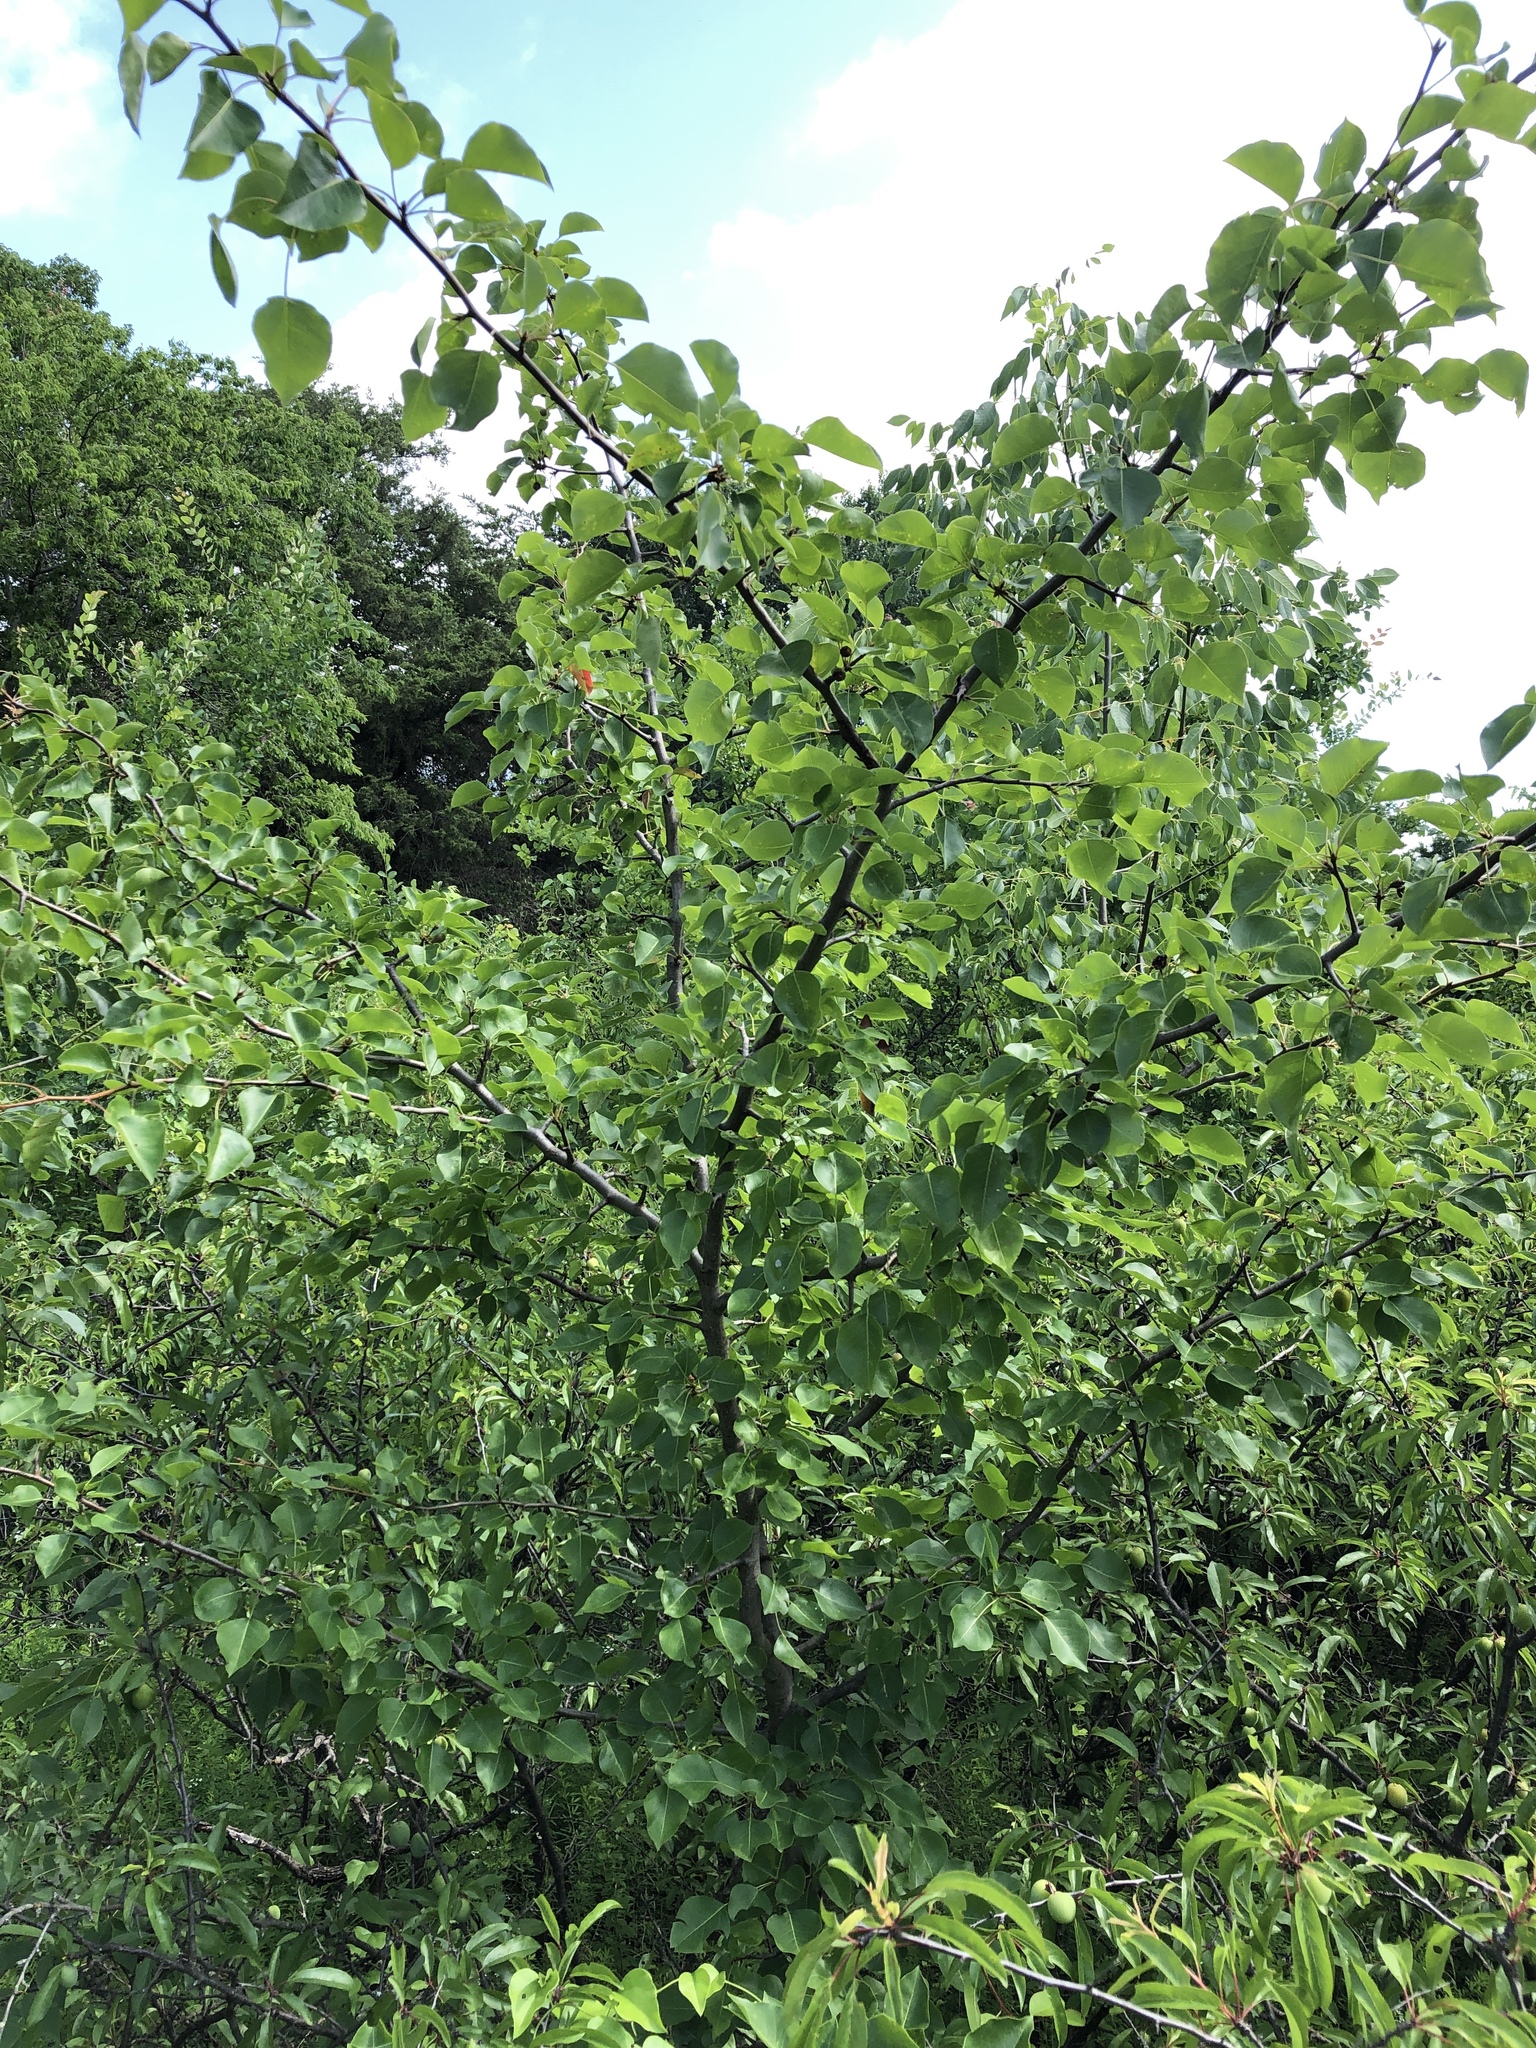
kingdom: Plantae
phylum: Tracheophyta
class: Magnoliopsida
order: Rosales
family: Rosaceae
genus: Pyrus
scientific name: Pyrus calleryana
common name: Callery pear
